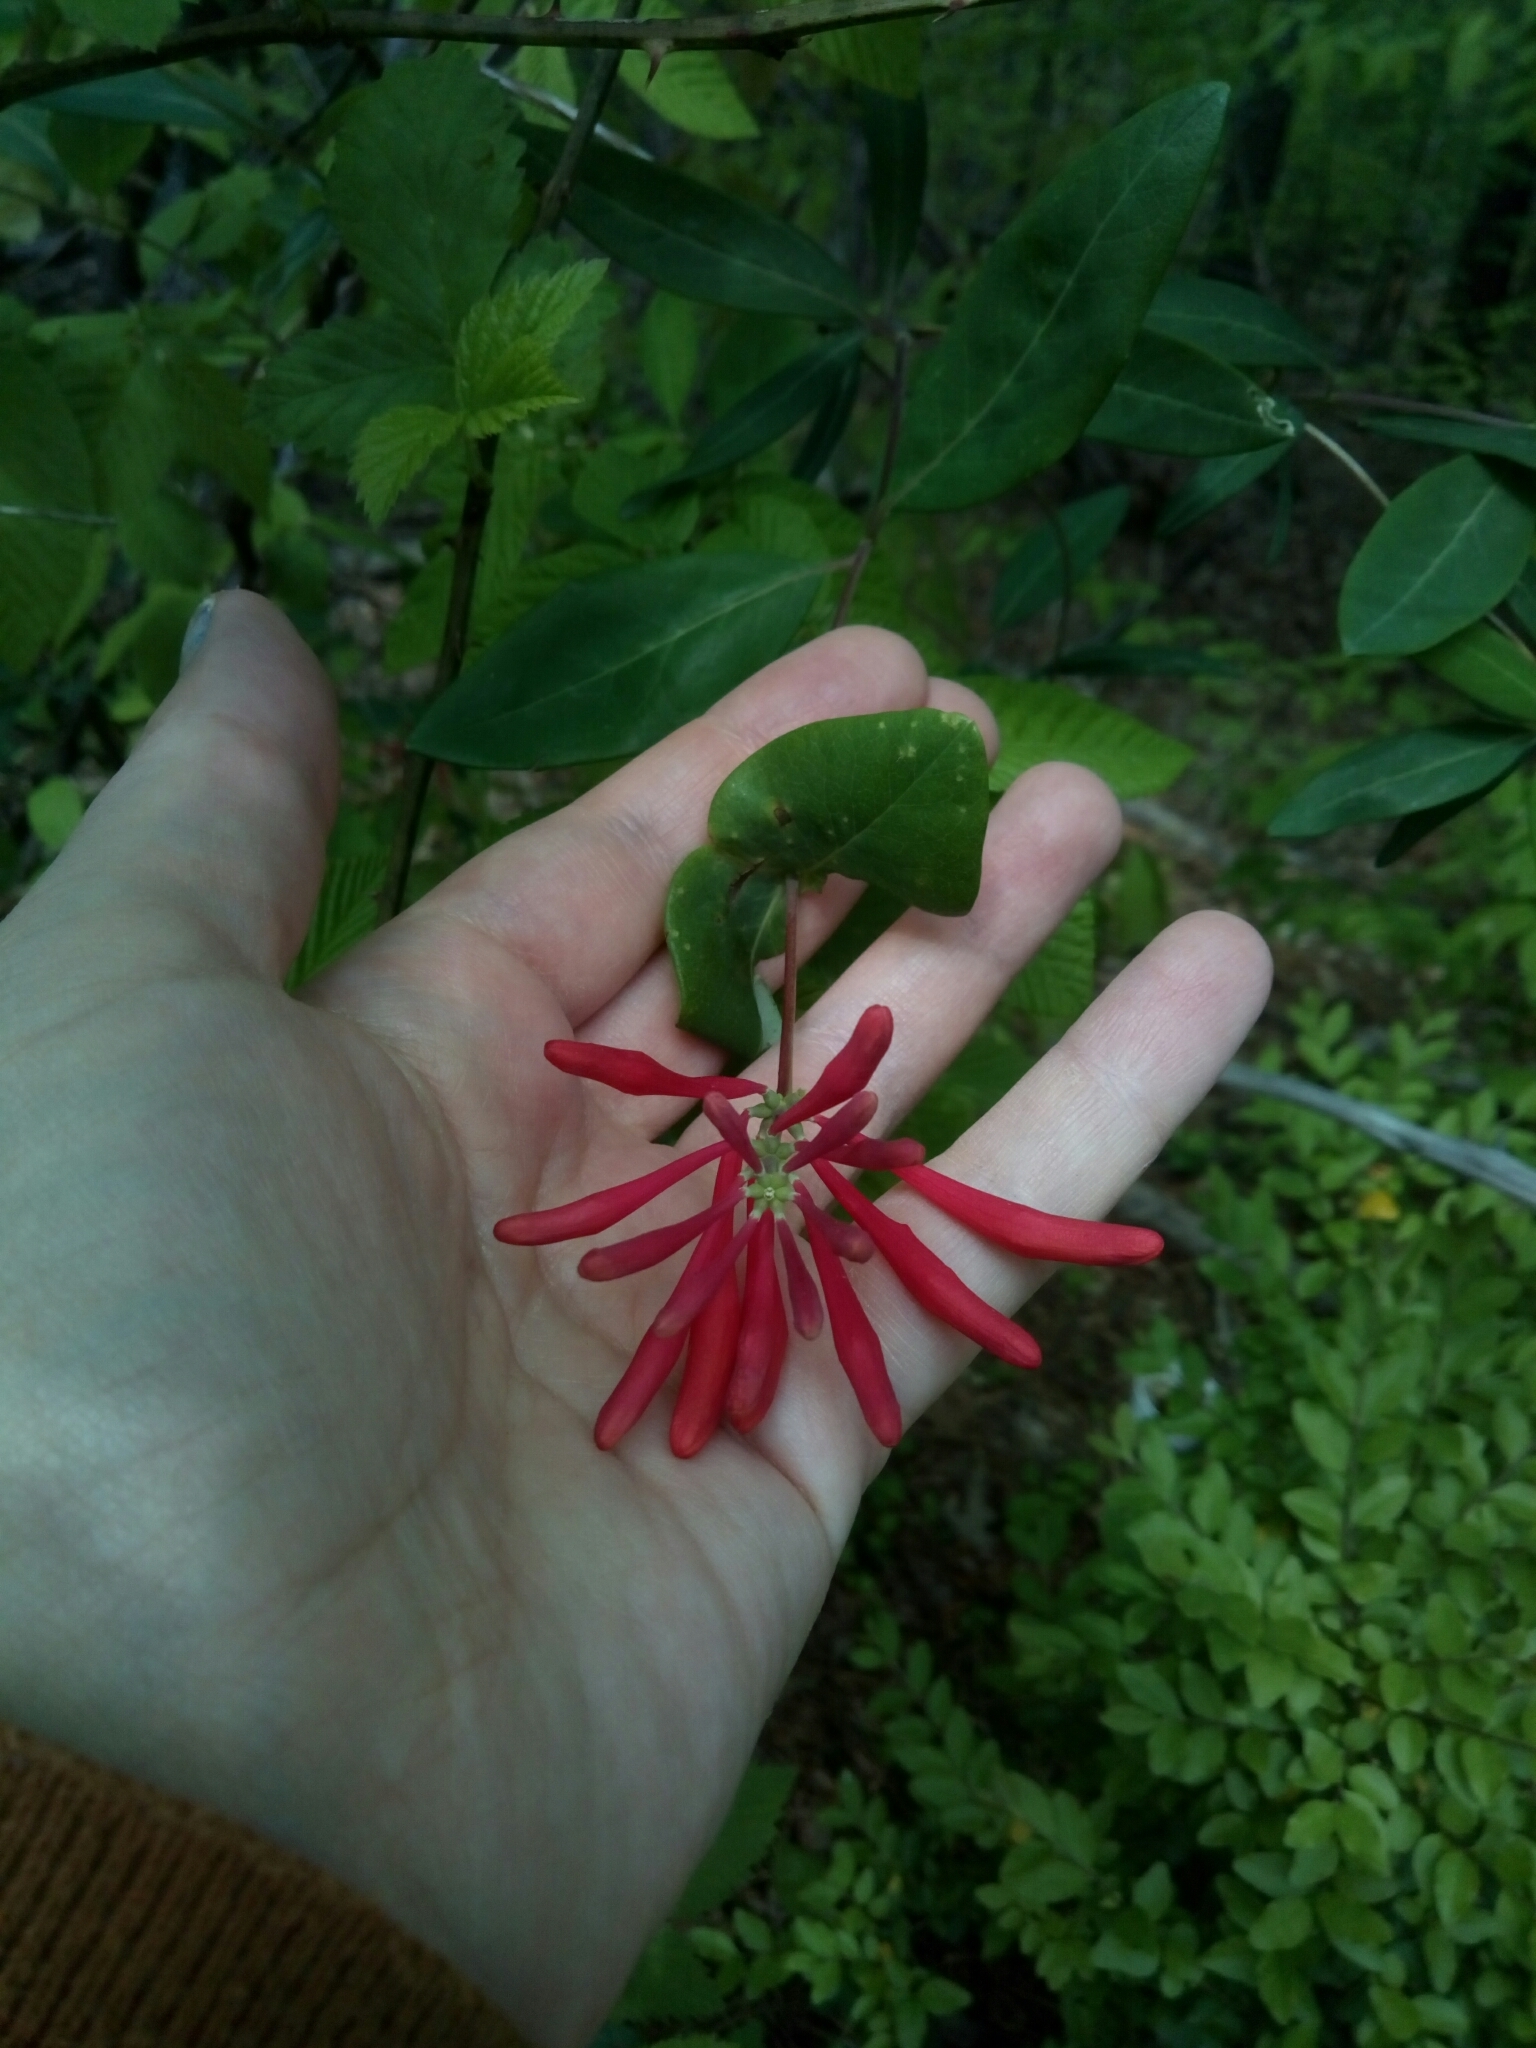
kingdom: Plantae
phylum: Tracheophyta
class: Magnoliopsida
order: Dipsacales
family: Caprifoliaceae
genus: Lonicera
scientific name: Lonicera sempervirens
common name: Coral honeysuckle
